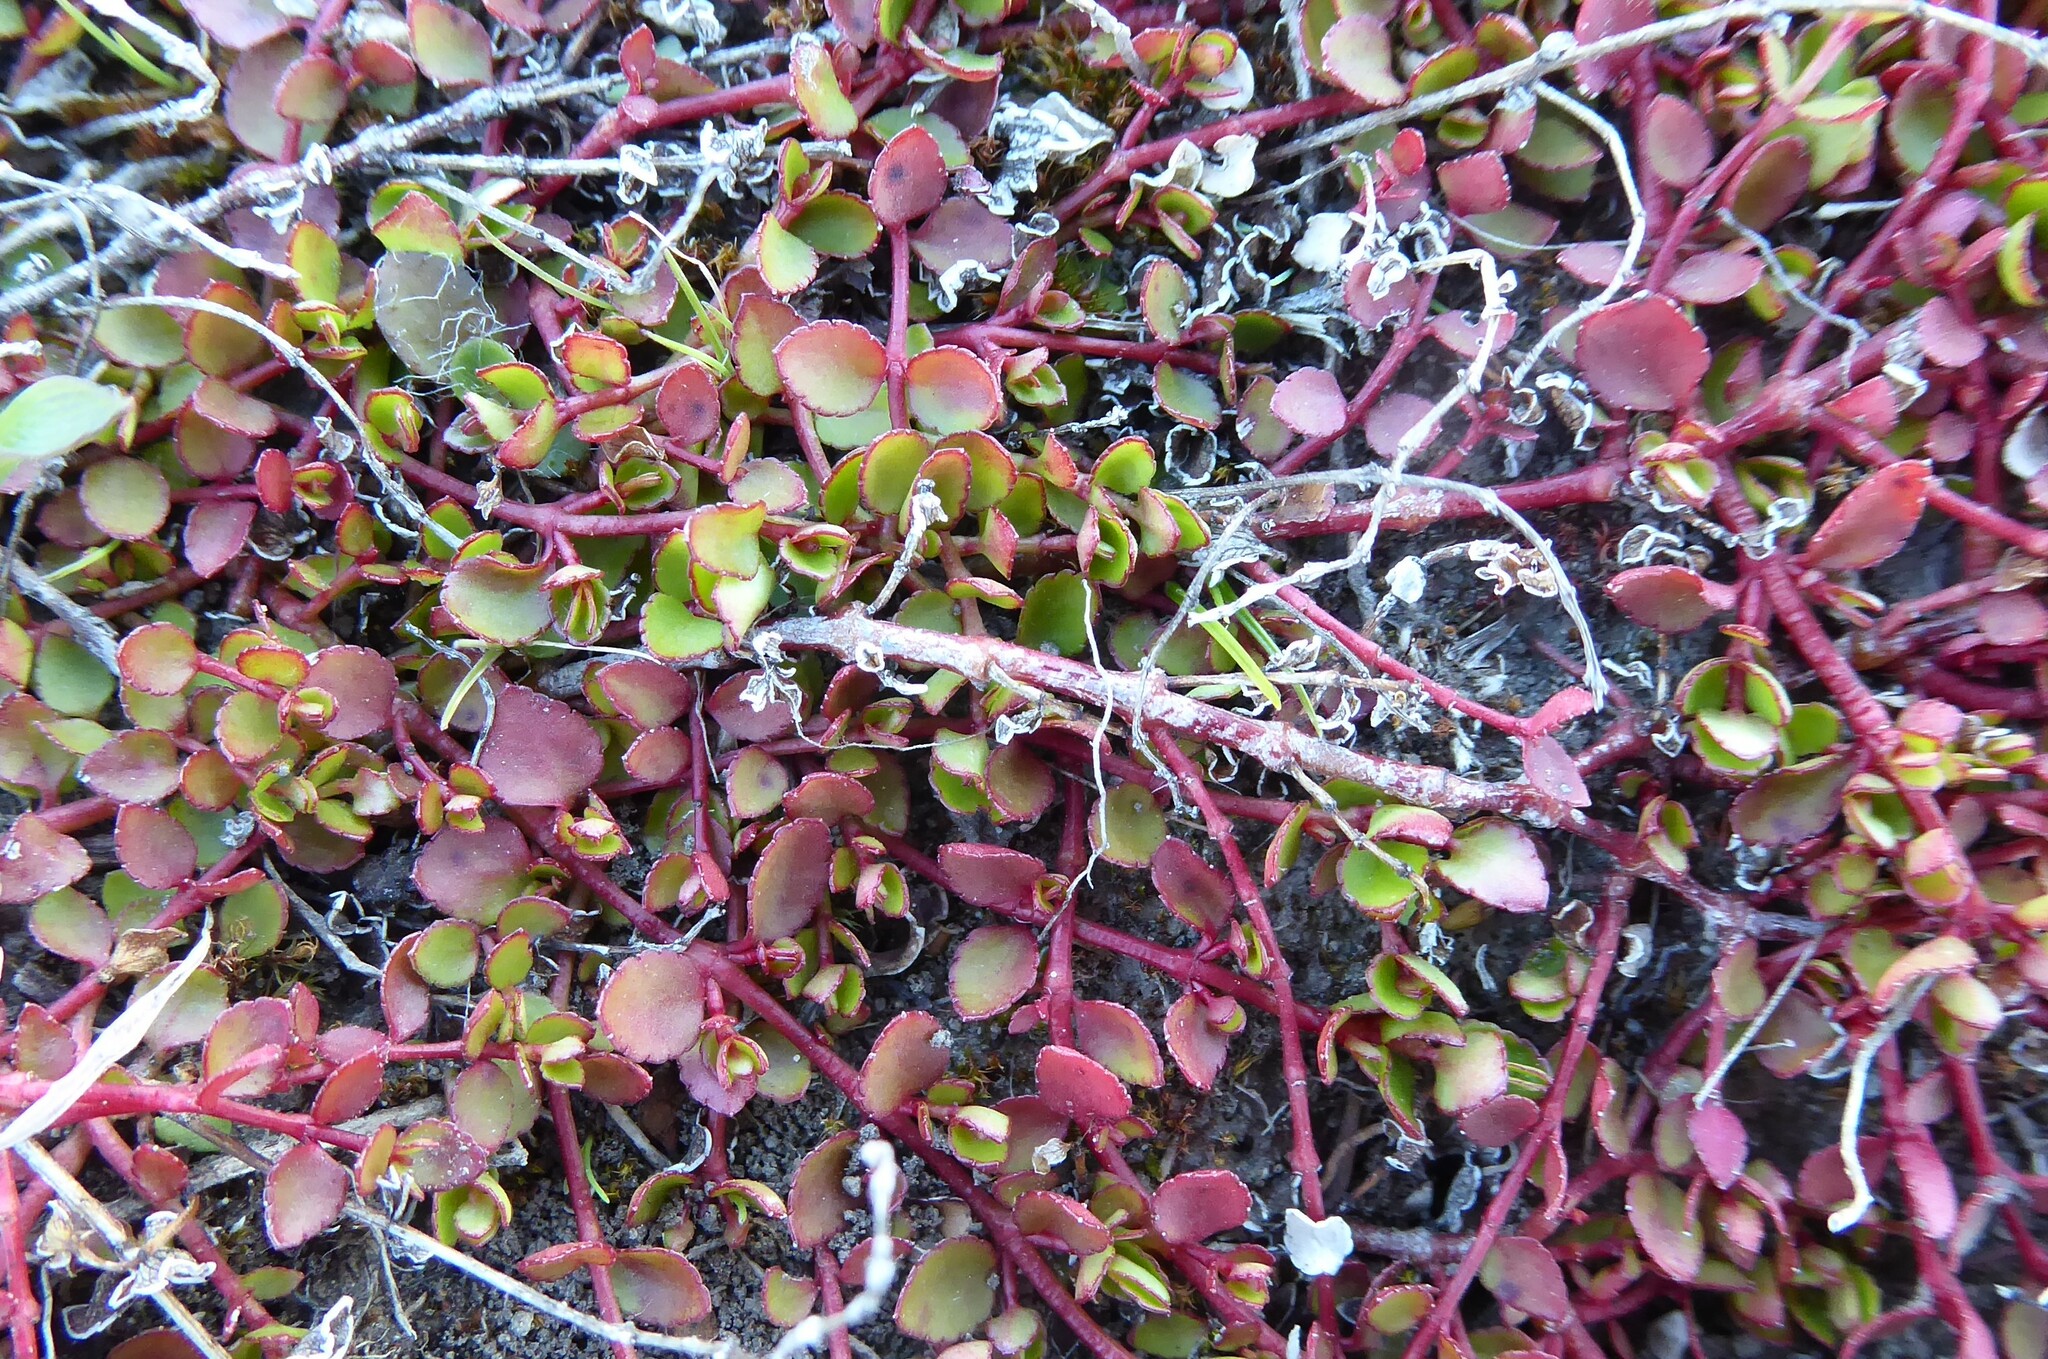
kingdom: Plantae
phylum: Tracheophyta
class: Magnoliopsida
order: Saxifragales
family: Haloragaceae
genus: Gonocarpus
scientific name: Gonocarpus micranthus
